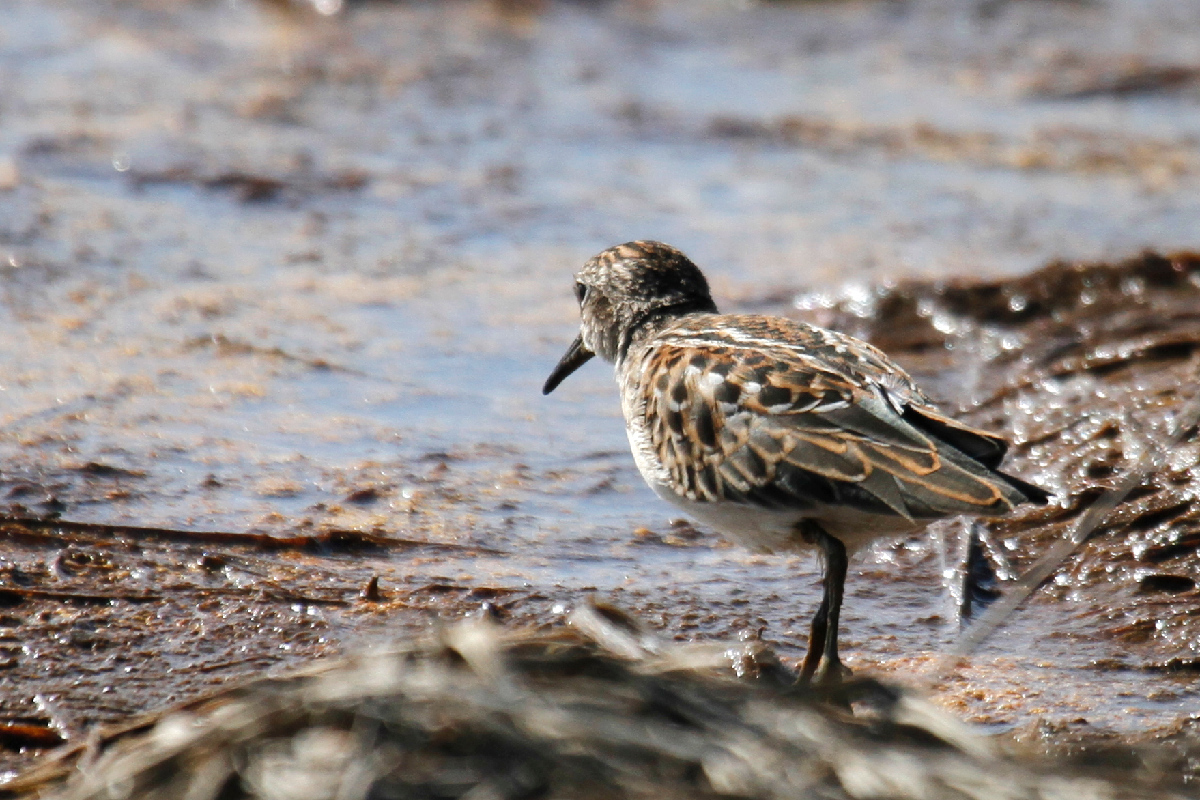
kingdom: Animalia
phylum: Chordata
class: Aves
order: Charadriiformes
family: Scolopacidae
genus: Calidris
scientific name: Calidris minutilla
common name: Least sandpiper
